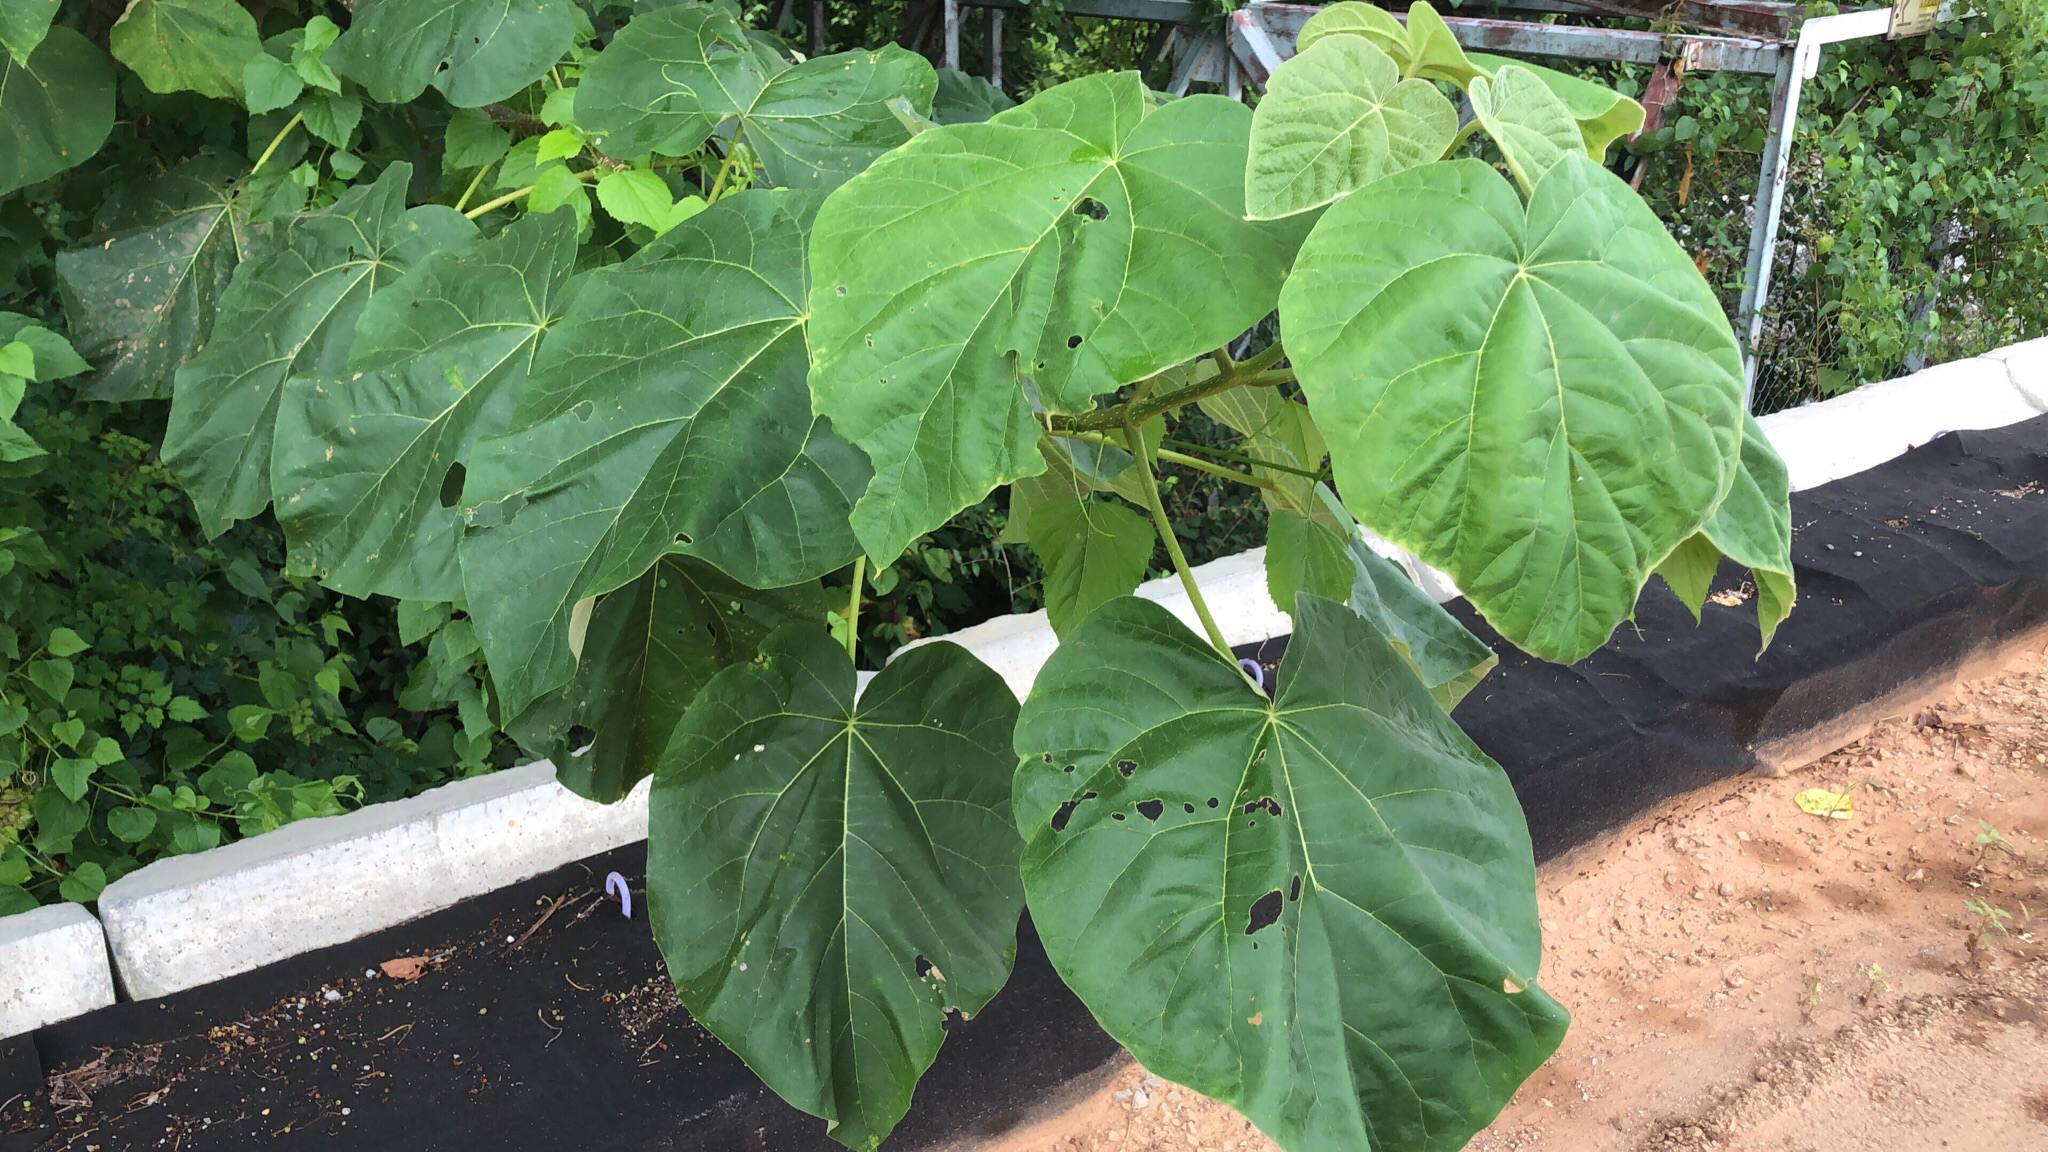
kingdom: Plantae
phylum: Tracheophyta
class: Magnoliopsida
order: Lamiales
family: Paulowniaceae
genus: Paulownia
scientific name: Paulownia tomentosa
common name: Foxglove-tree
